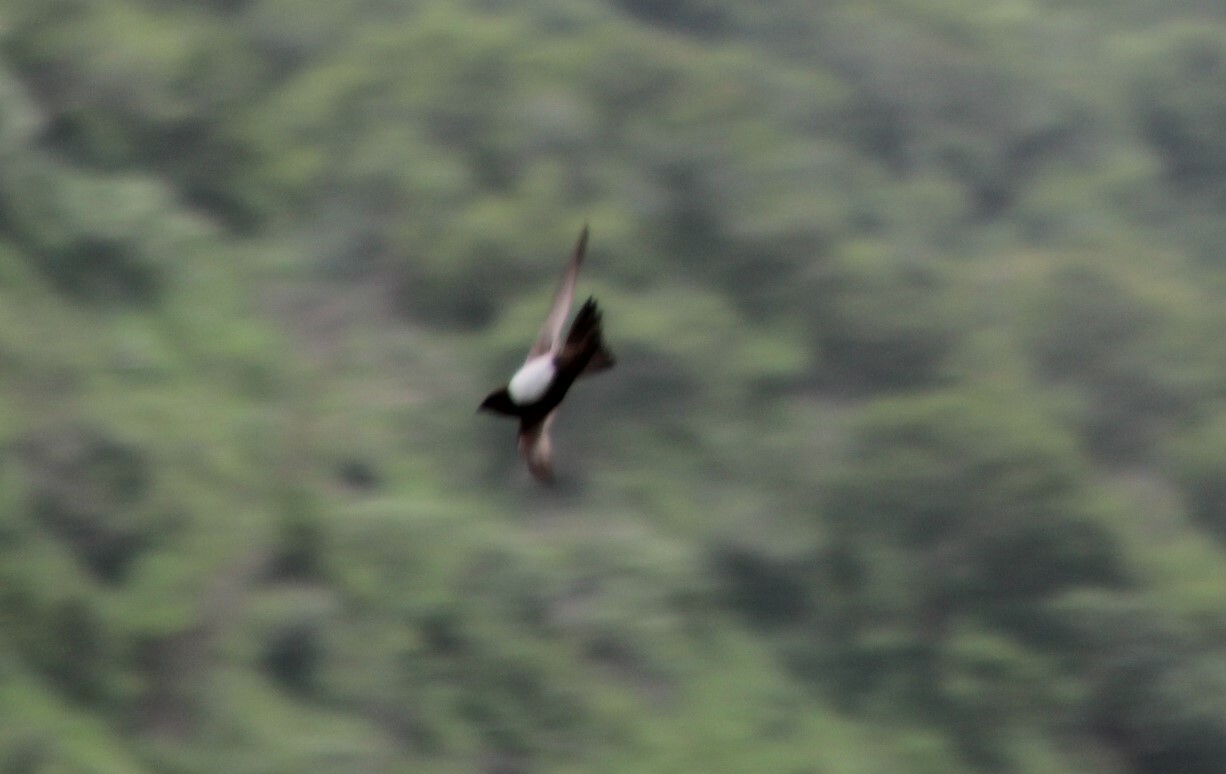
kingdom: Animalia
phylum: Chordata
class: Aves
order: Apodiformes
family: Apodidae
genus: Tachymarptis
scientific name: Tachymarptis melba
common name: Alpine swift
